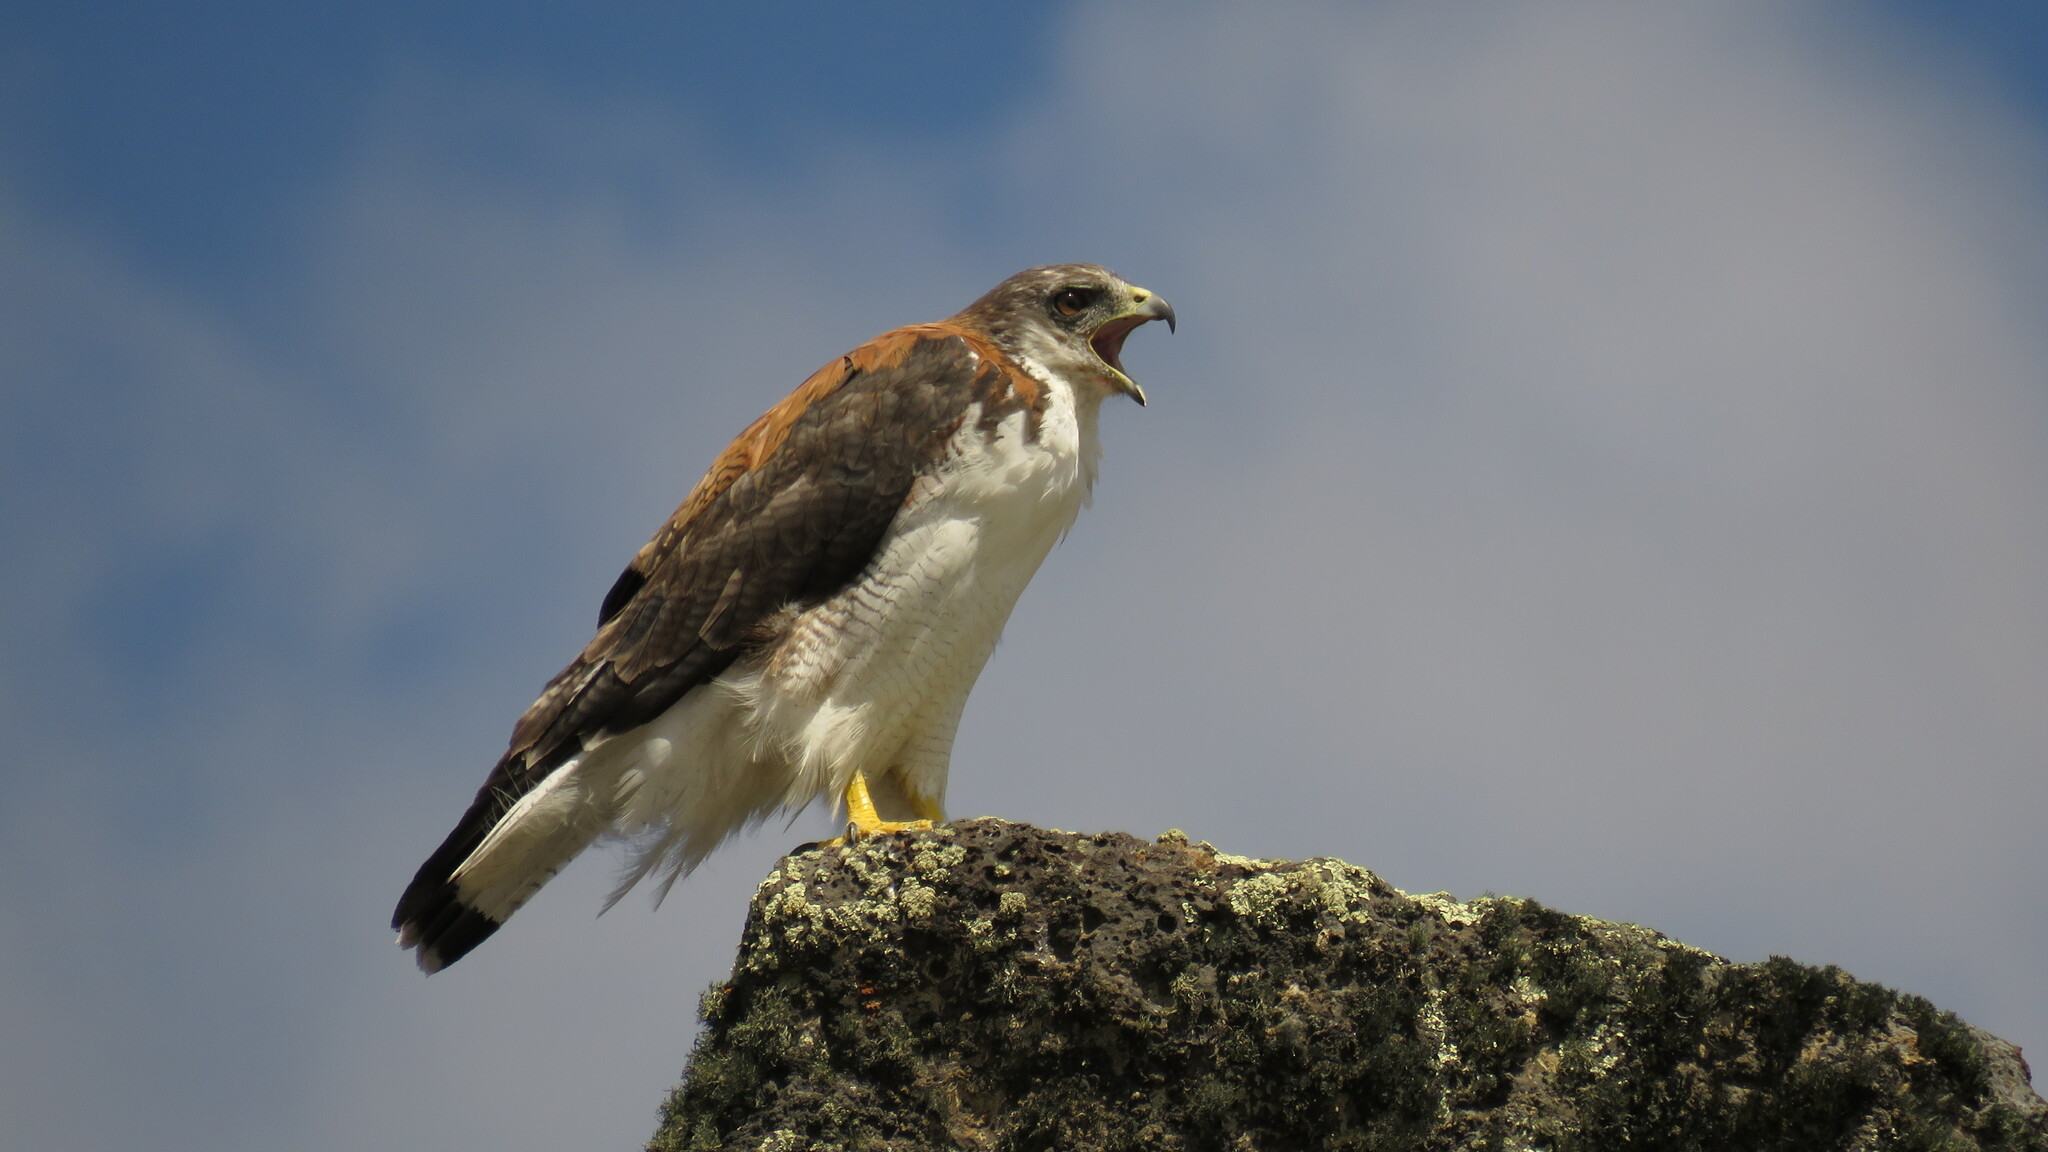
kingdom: Animalia
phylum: Chordata
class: Aves
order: Accipitriformes
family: Accipitridae
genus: Buteo
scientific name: Buteo polyosoma
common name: Variable hawk
